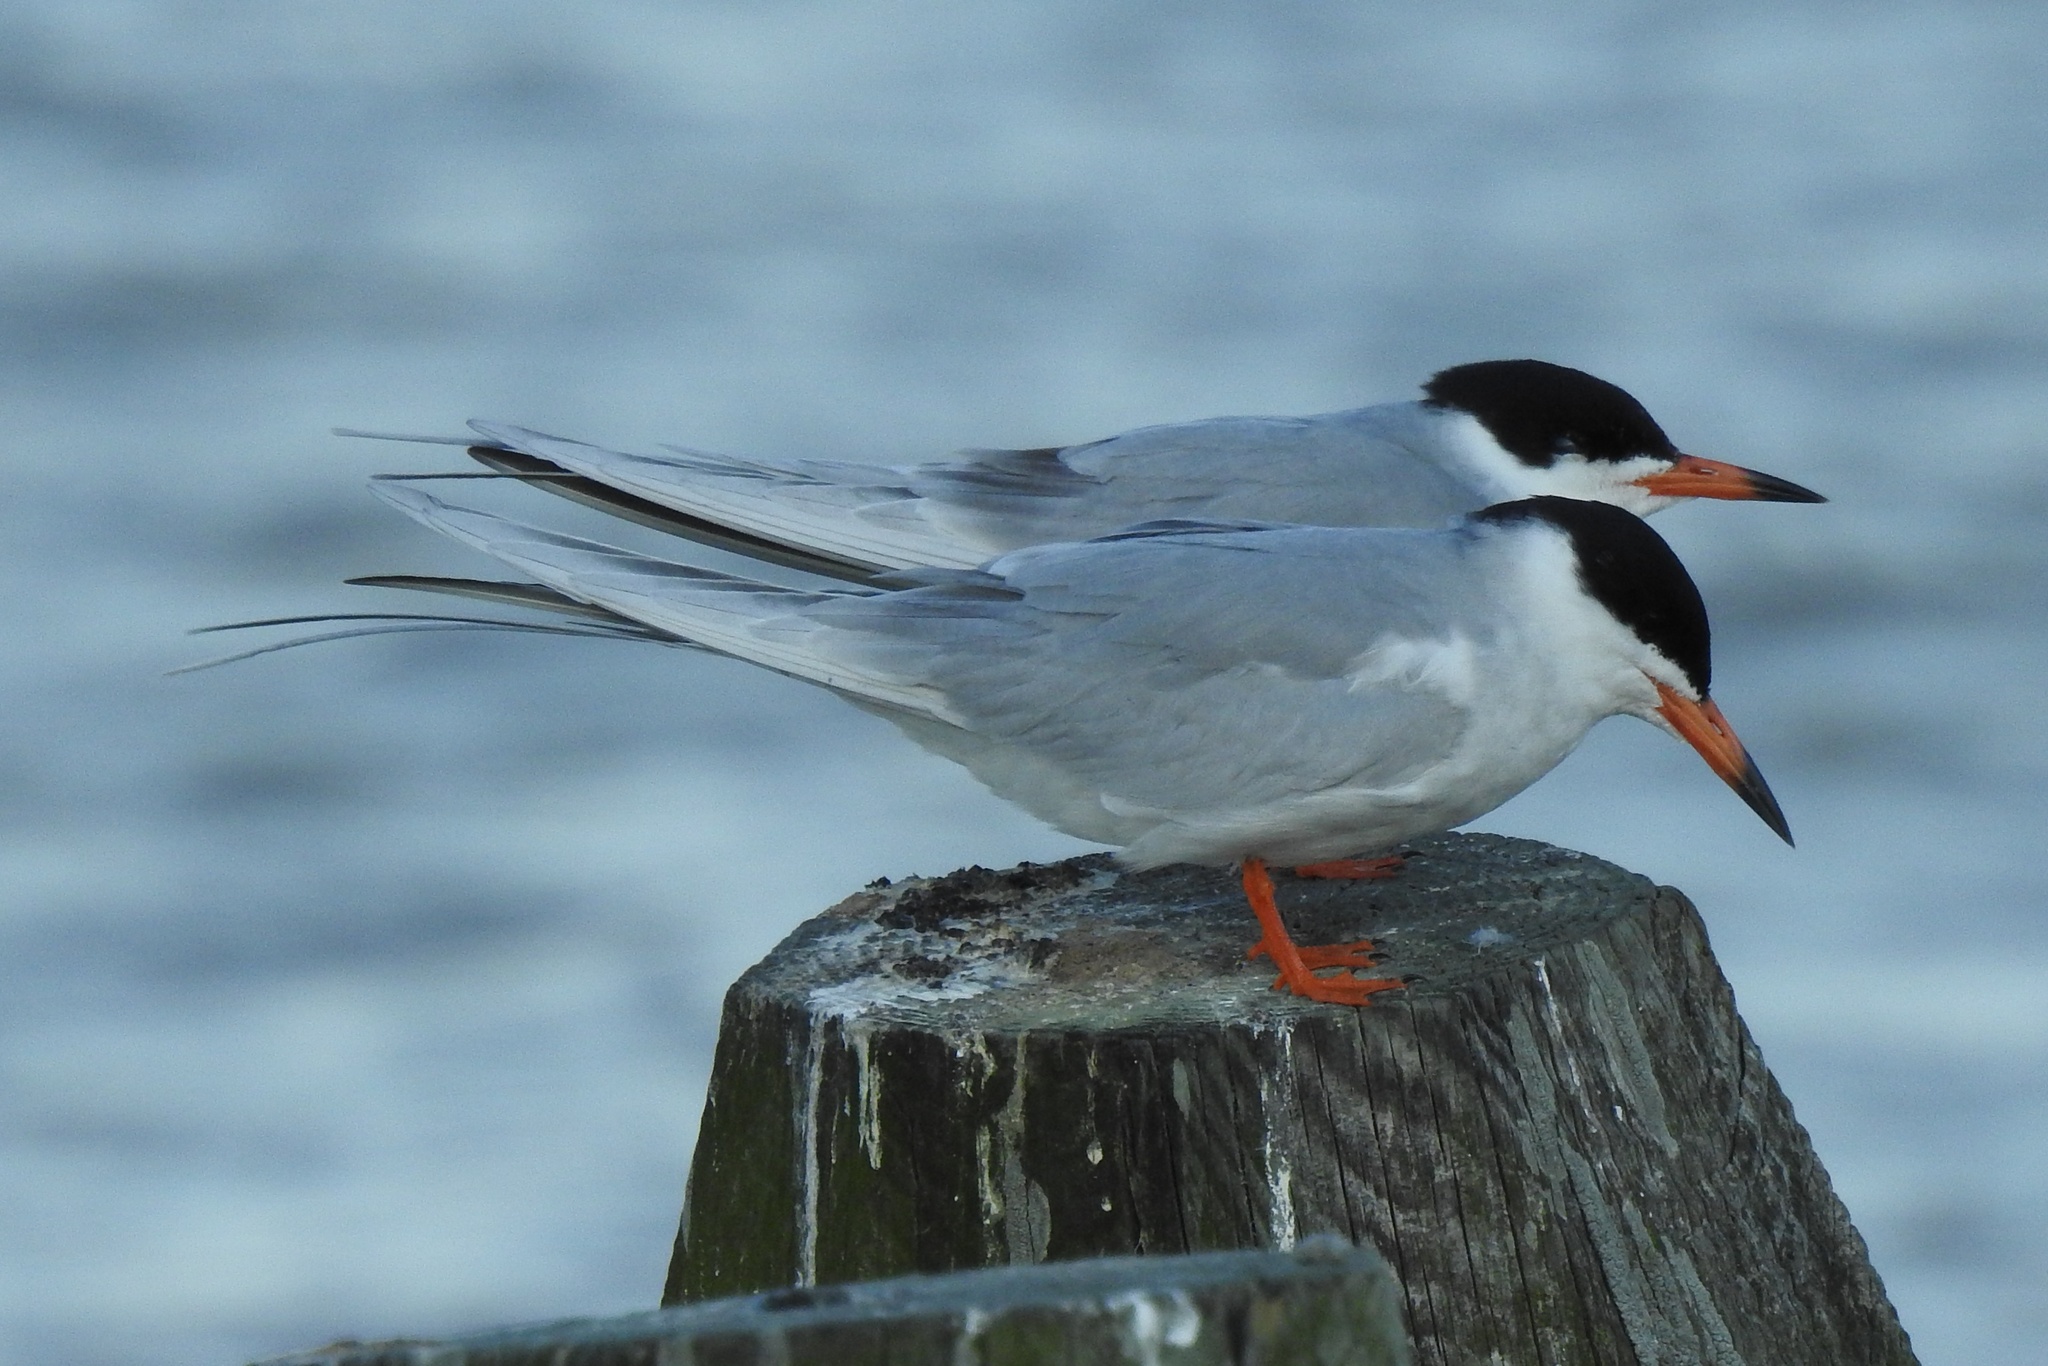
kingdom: Animalia
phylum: Chordata
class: Aves
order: Charadriiformes
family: Laridae
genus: Sterna
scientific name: Sterna forsteri
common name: Forster's tern
